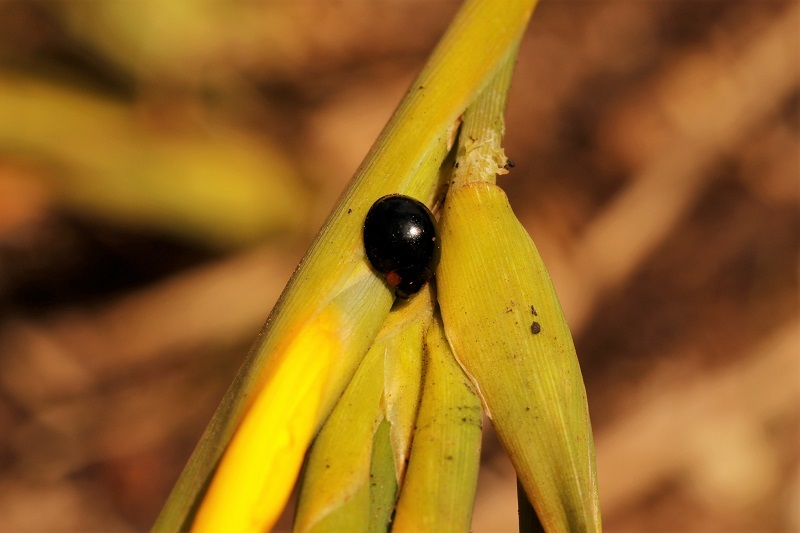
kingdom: Animalia
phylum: Arthropoda
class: Insecta
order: Coleoptera
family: Coccinellidae
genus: Exochomus
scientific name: Exochomus flavipes
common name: Ladybird beetle
